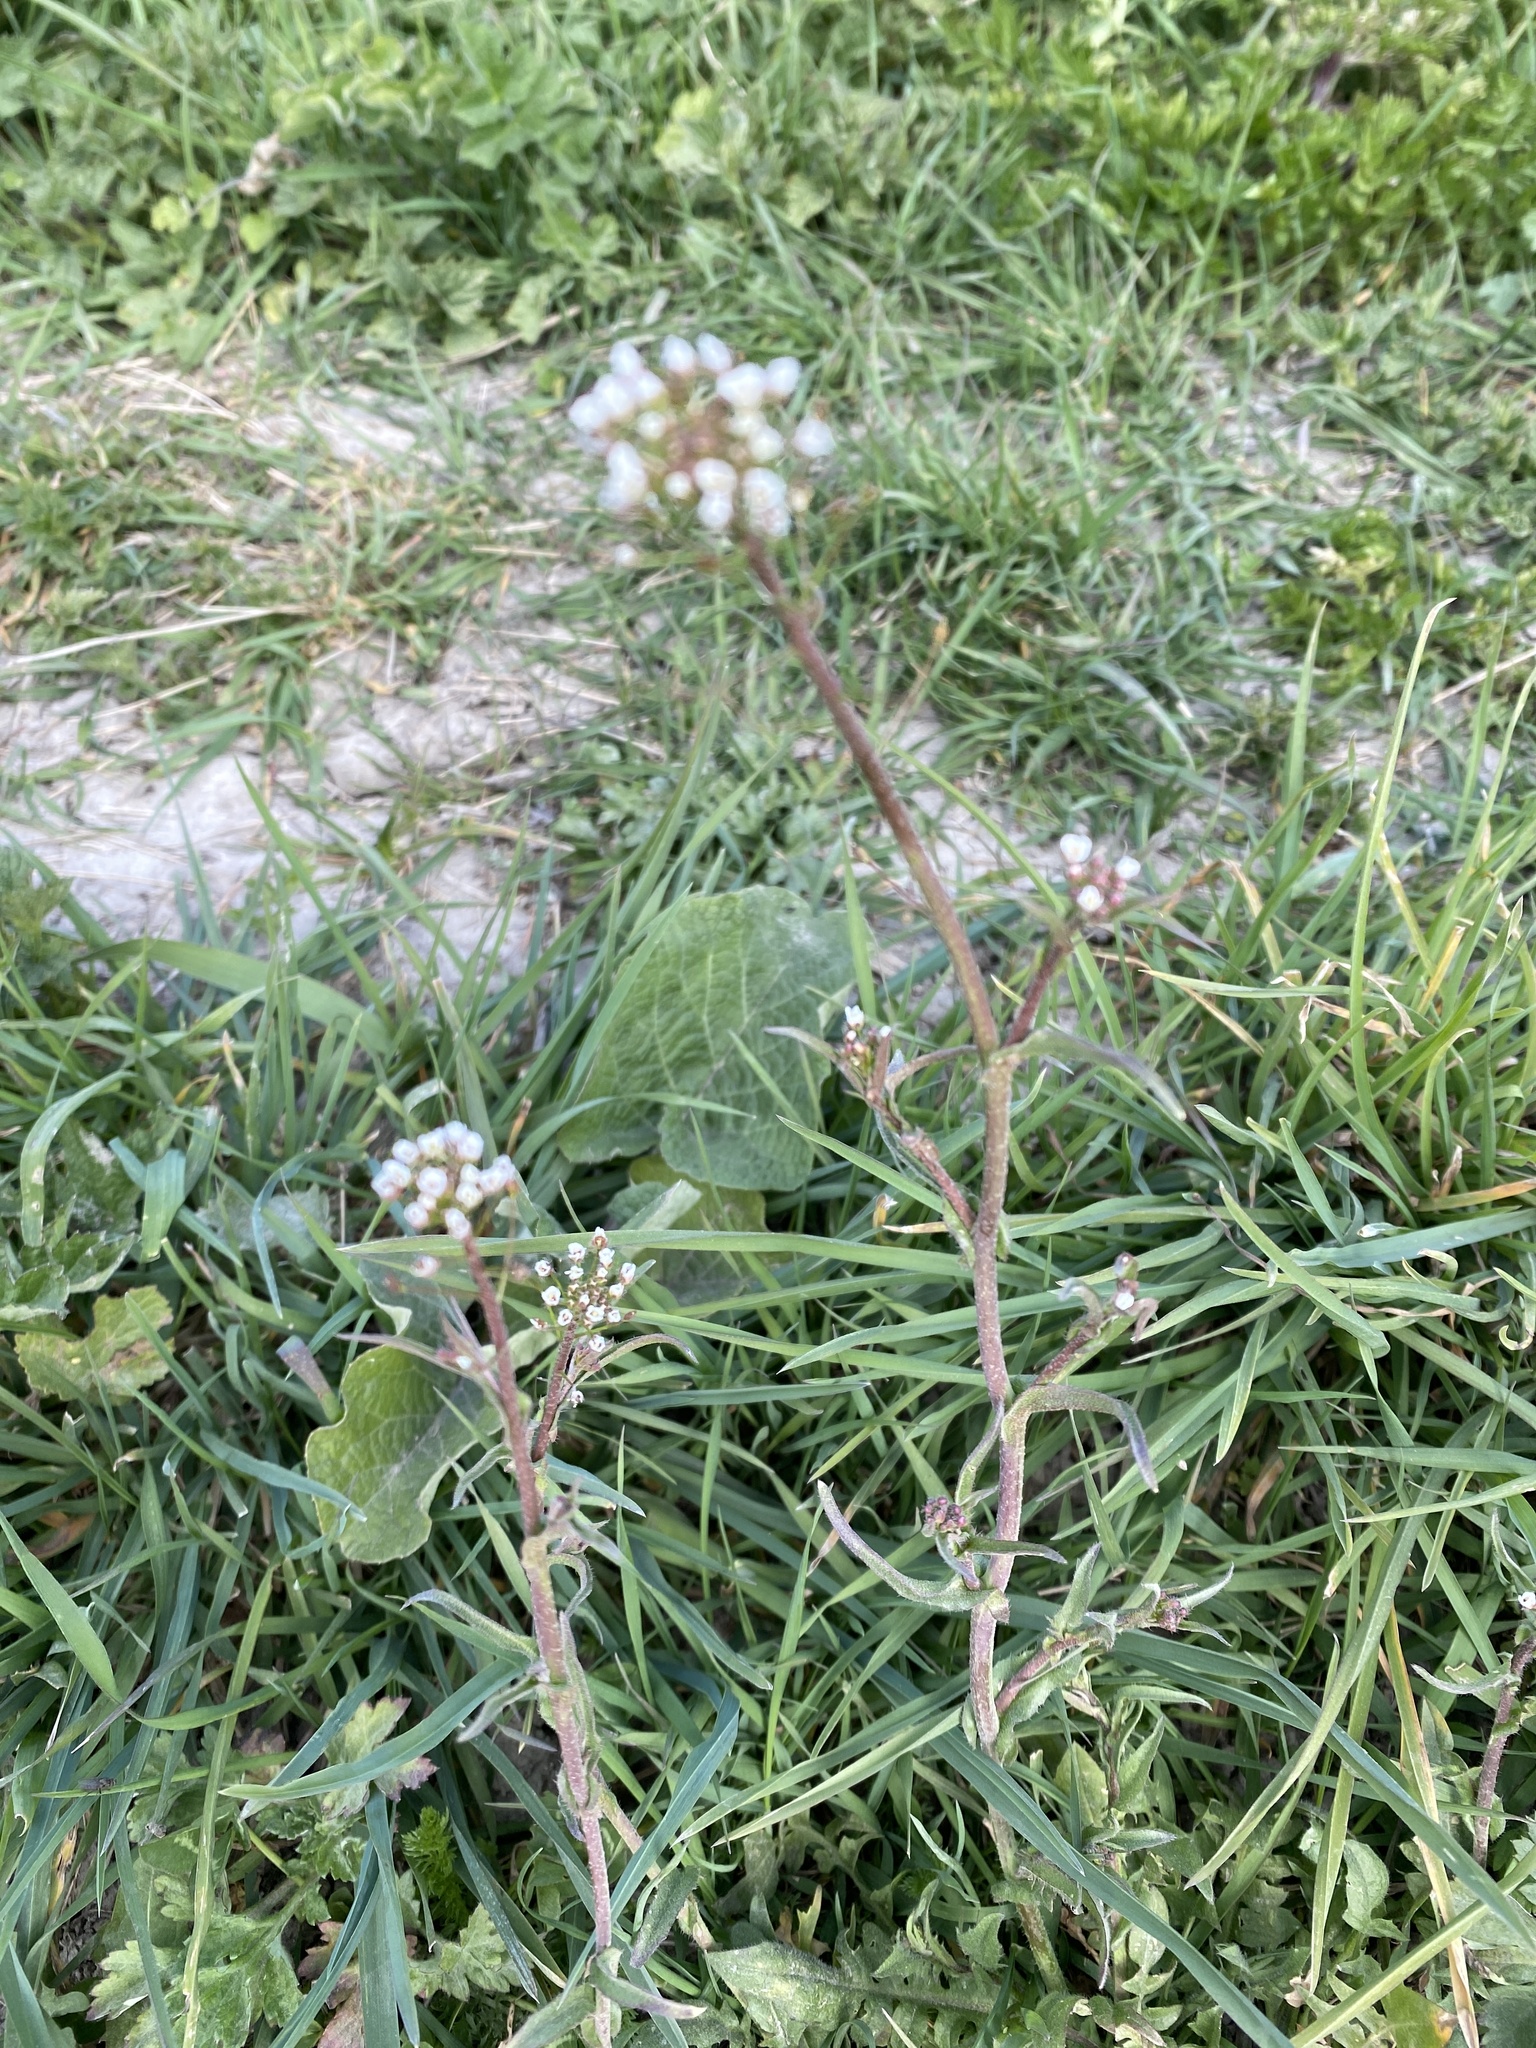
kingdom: Plantae
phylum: Tracheophyta
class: Magnoliopsida
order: Brassicales
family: Brassicaceae
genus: Capsella
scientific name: Capsella bursa-pastoris
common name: Shepherd's purse
